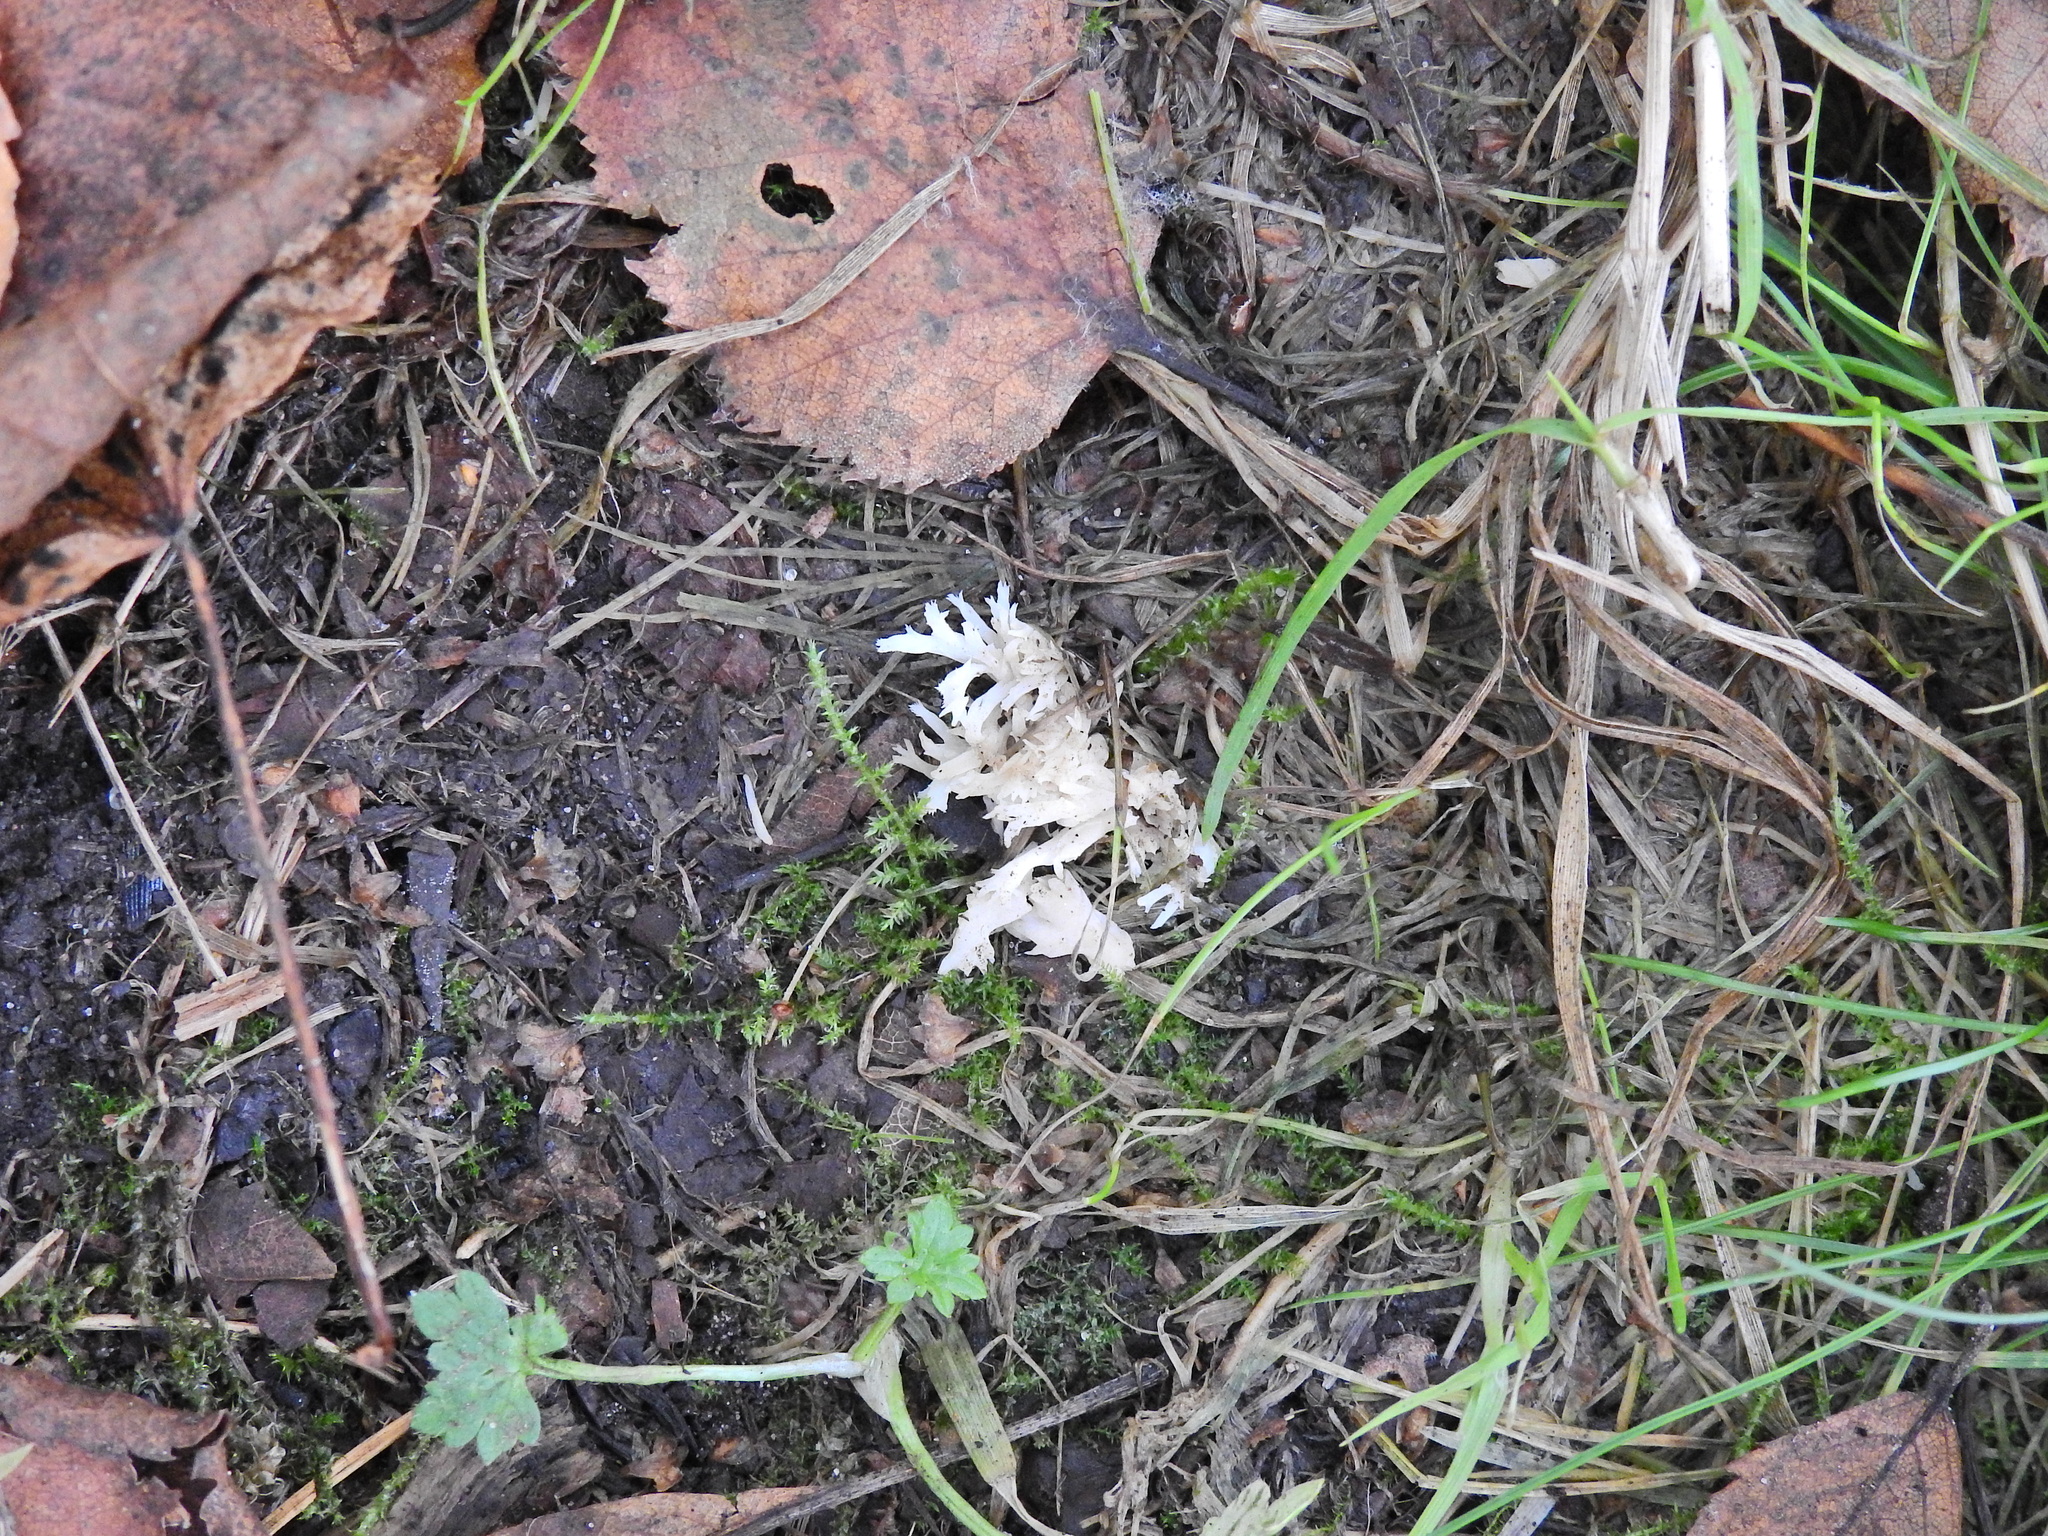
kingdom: Fungi
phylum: Basidiomycota
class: Agaricomycetes
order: Cantharellales
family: Hydnaceae
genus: Clavulina
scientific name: Clavulina coralloides
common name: Crested coral
